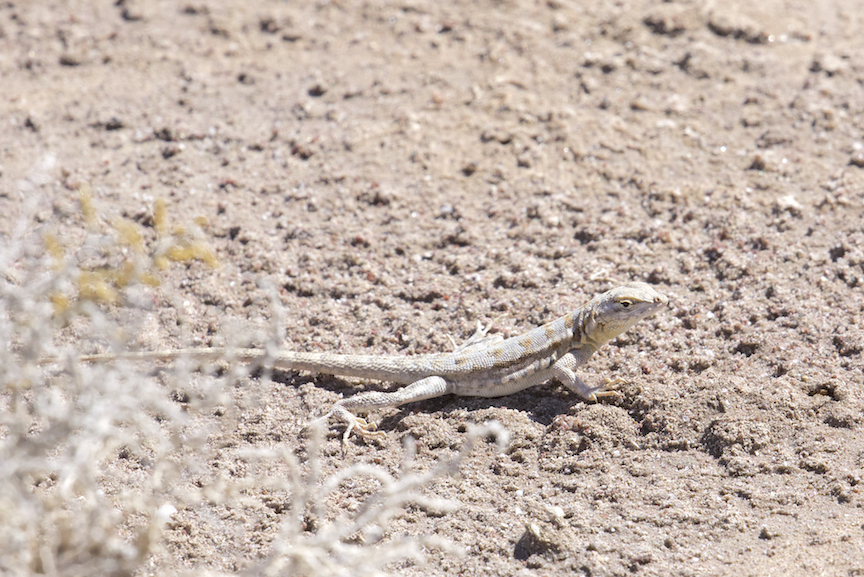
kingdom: Animalia
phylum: Chordata
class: Squamata
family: Phrynosomatidae
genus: Uta
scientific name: Uta stansburiana
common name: Side-blotched lizard
